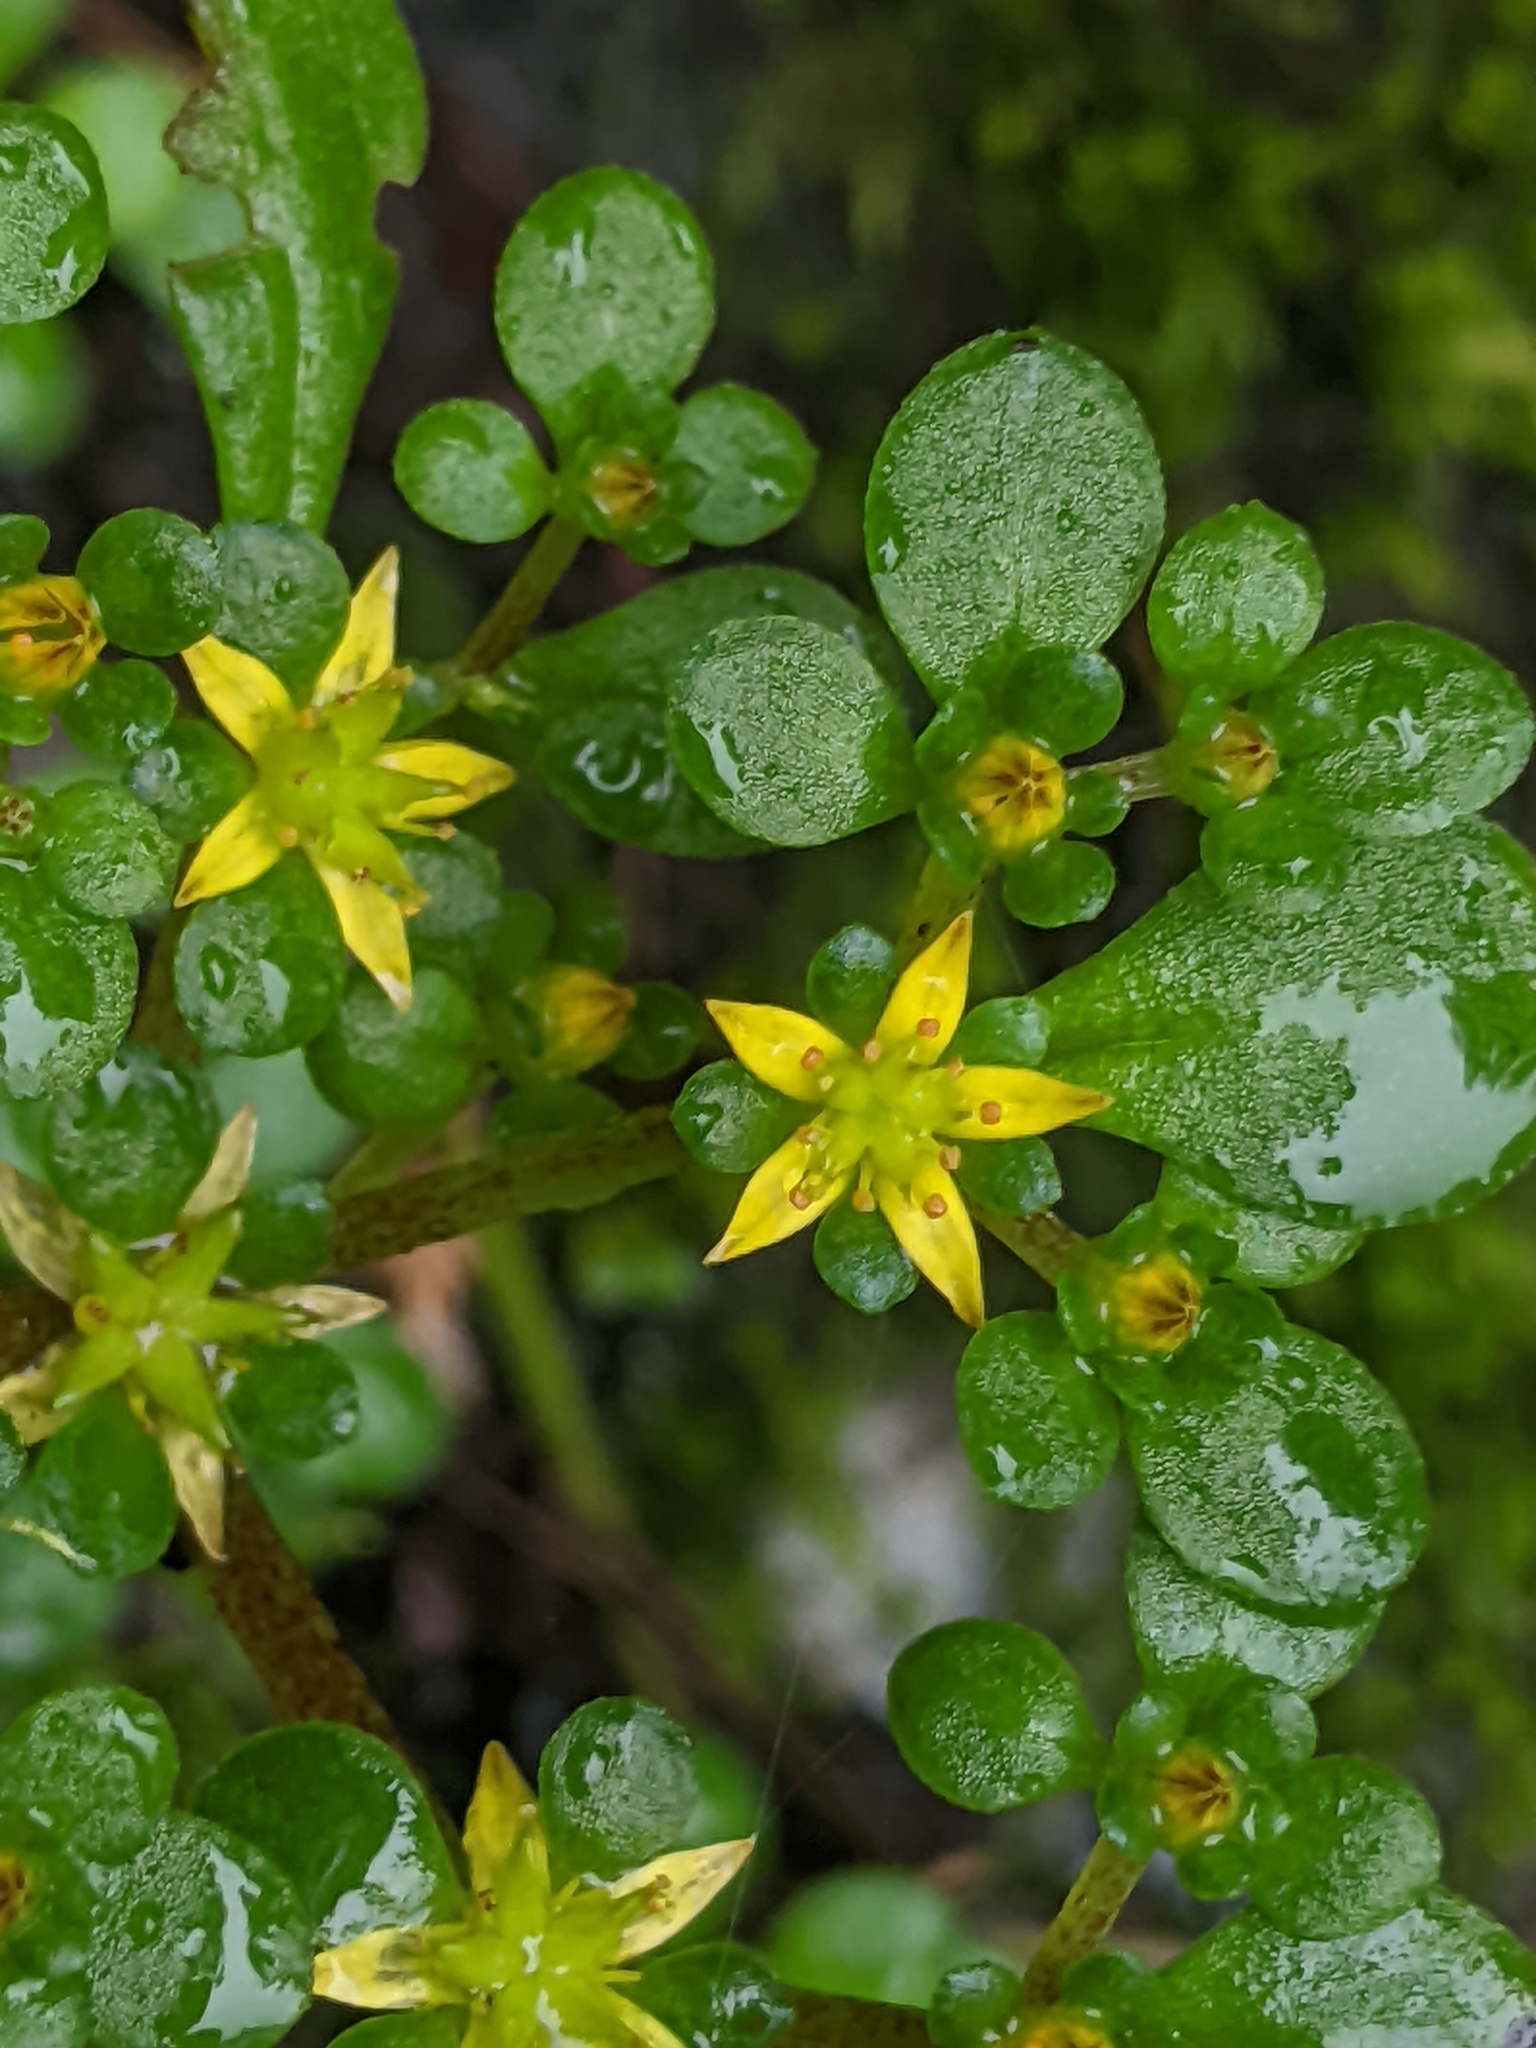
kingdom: Plantae
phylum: Tracheophyta
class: Magnoliopsida
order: Saxifragales
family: Crassulaceae
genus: Sedum
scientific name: Sedum actinocarpum
